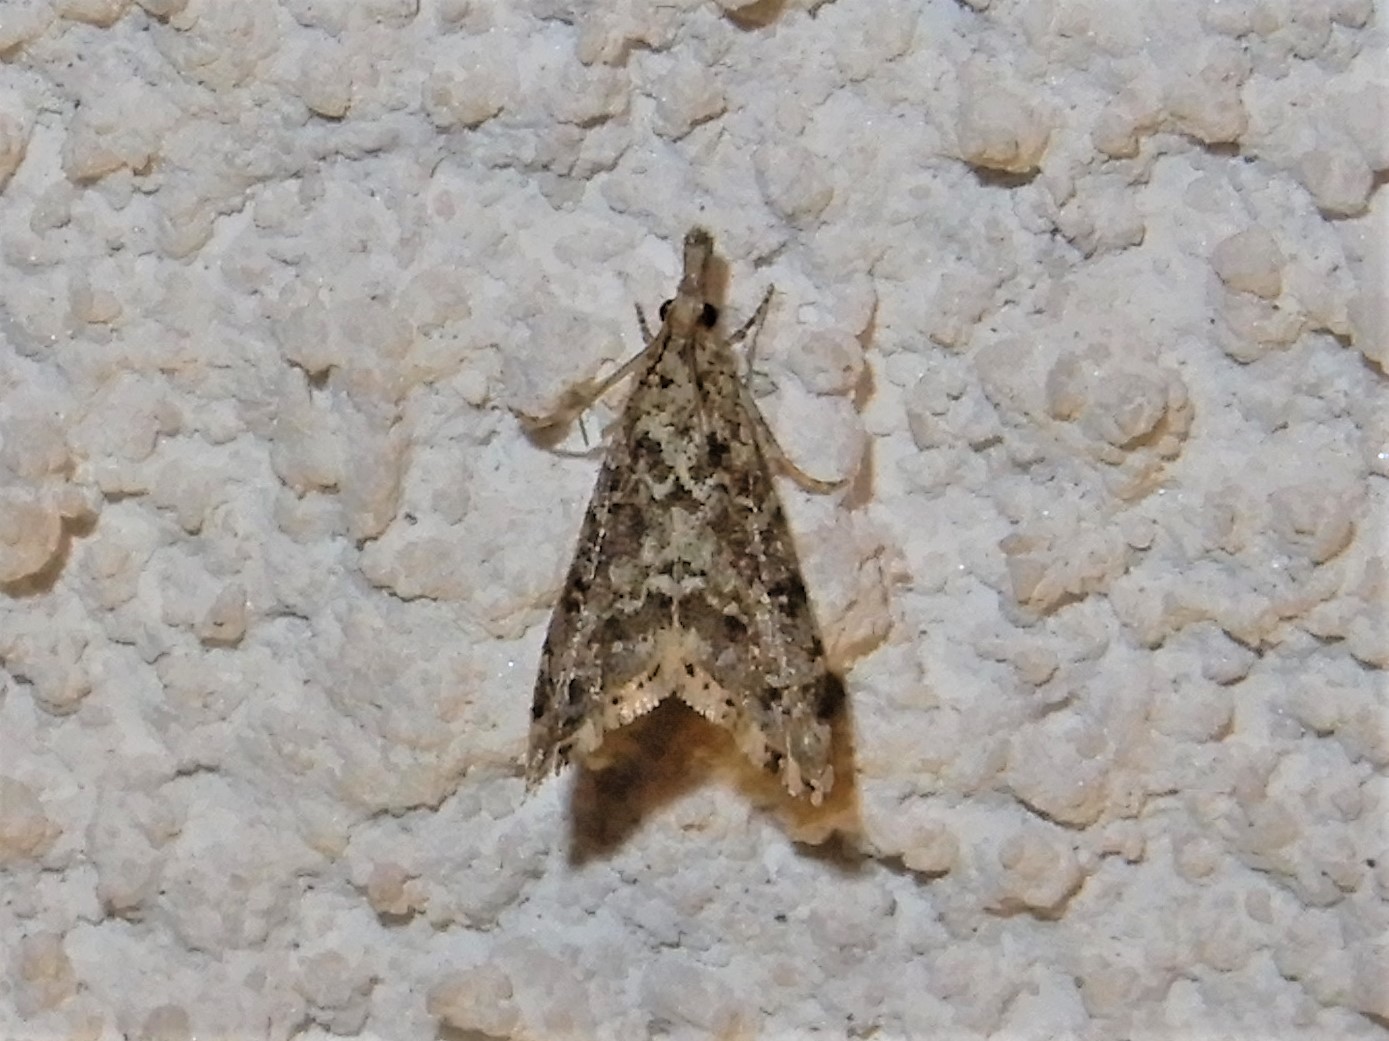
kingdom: Animalia
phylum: Arthropoda
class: Insecta
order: Lepidoptera
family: Crambidae
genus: Glaucocharis
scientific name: Glaucocharis elaina
